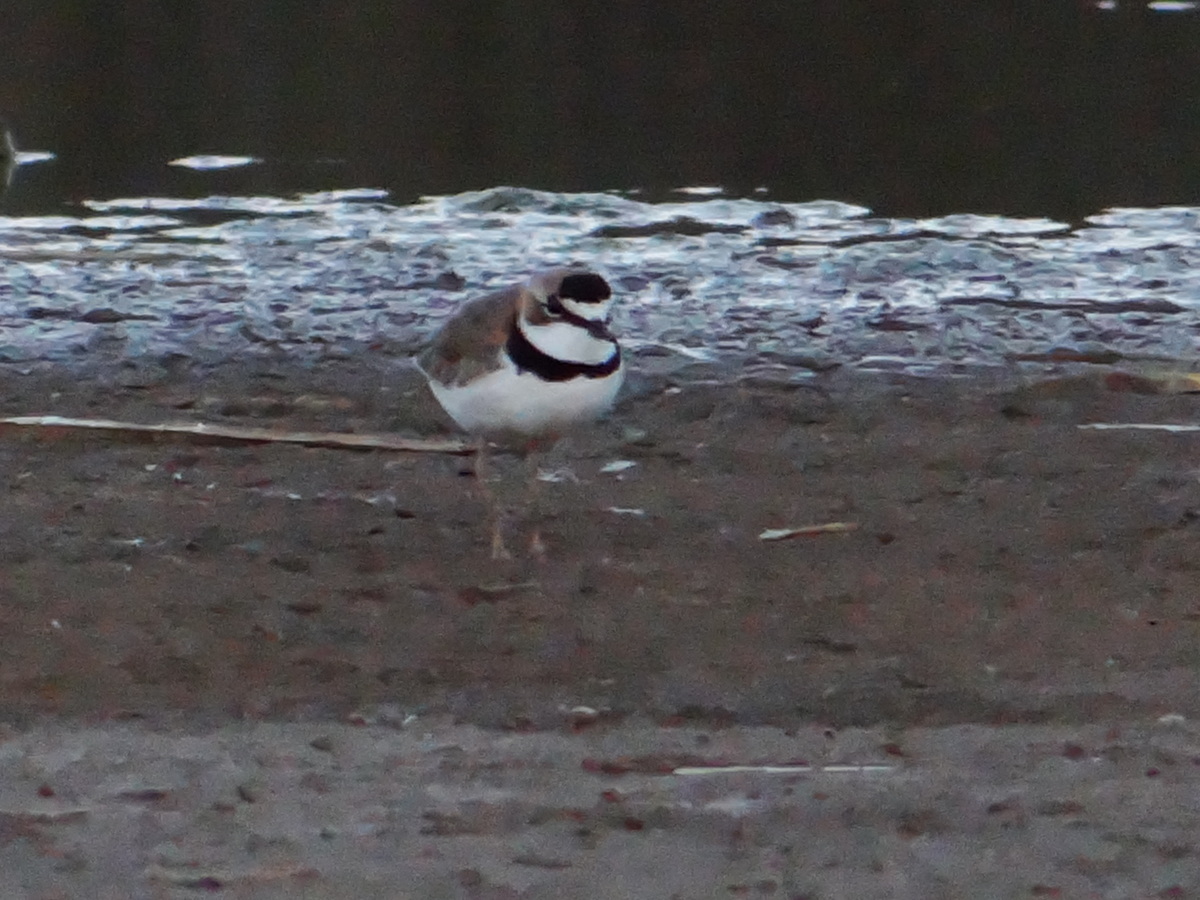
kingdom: Animalia
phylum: Chordata
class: Aves
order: Charadriiformes
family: Charadriidae
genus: Anarhynchus
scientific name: Anarhynchus
